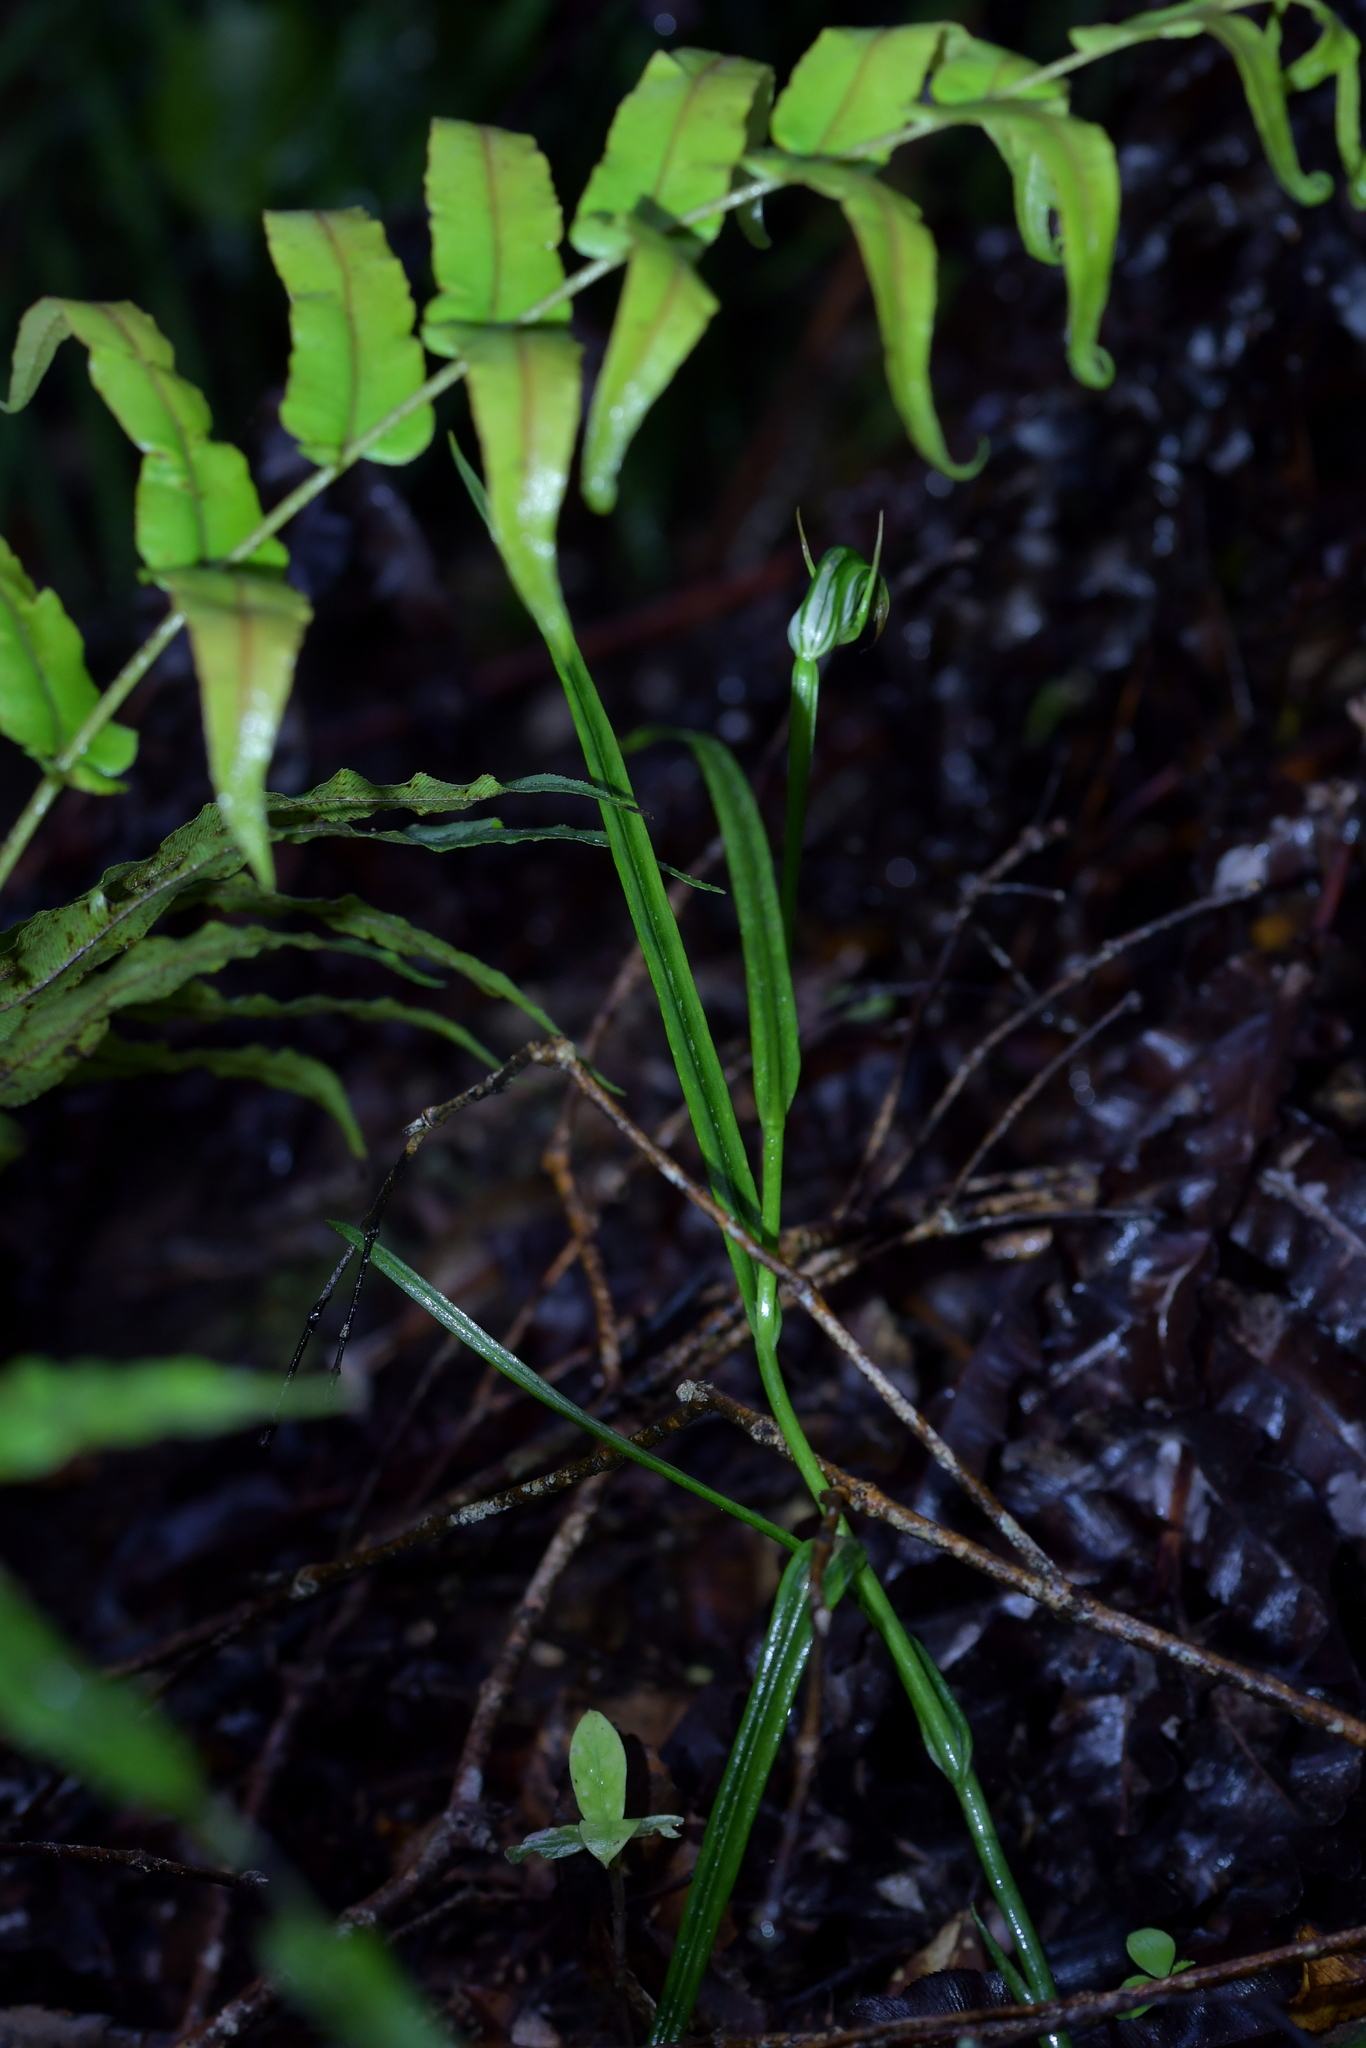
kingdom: Plantae
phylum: Tracheophyta
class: Liliopsida
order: Asparagales
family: Orchidaceae
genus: Pterostylis
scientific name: Pterostylis graminea
